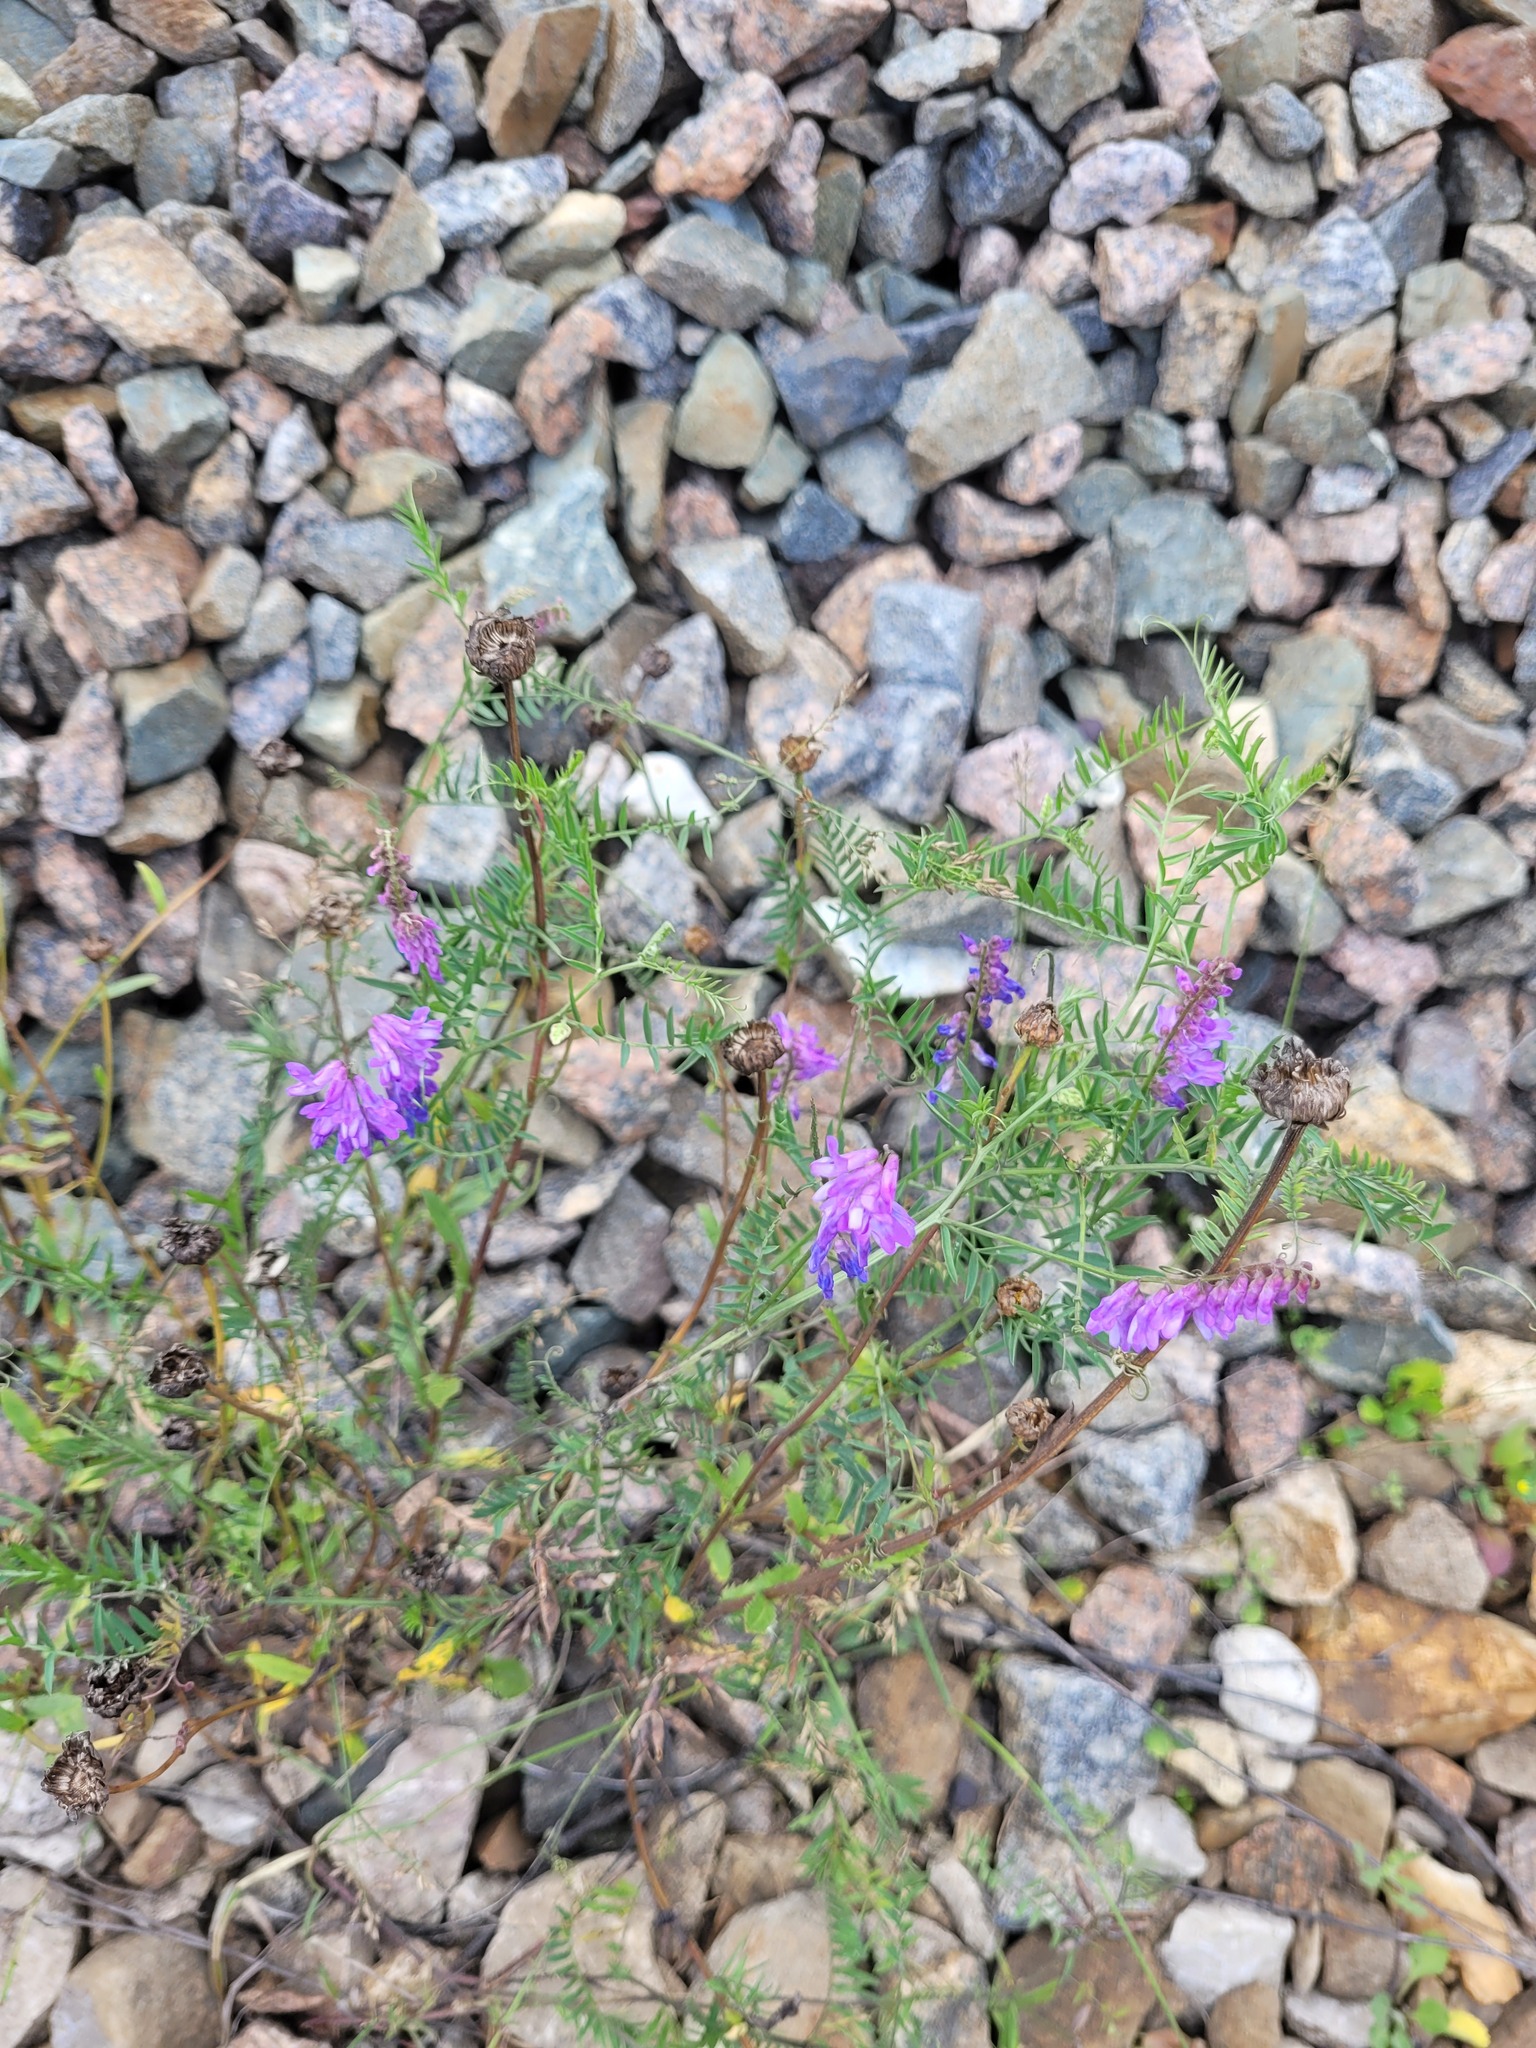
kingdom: Plantae
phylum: Tracheophyta
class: Magnoliopsida
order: Fabales
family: Fabaceae
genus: Vicia
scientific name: Vicia cracca
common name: Bird vetch
